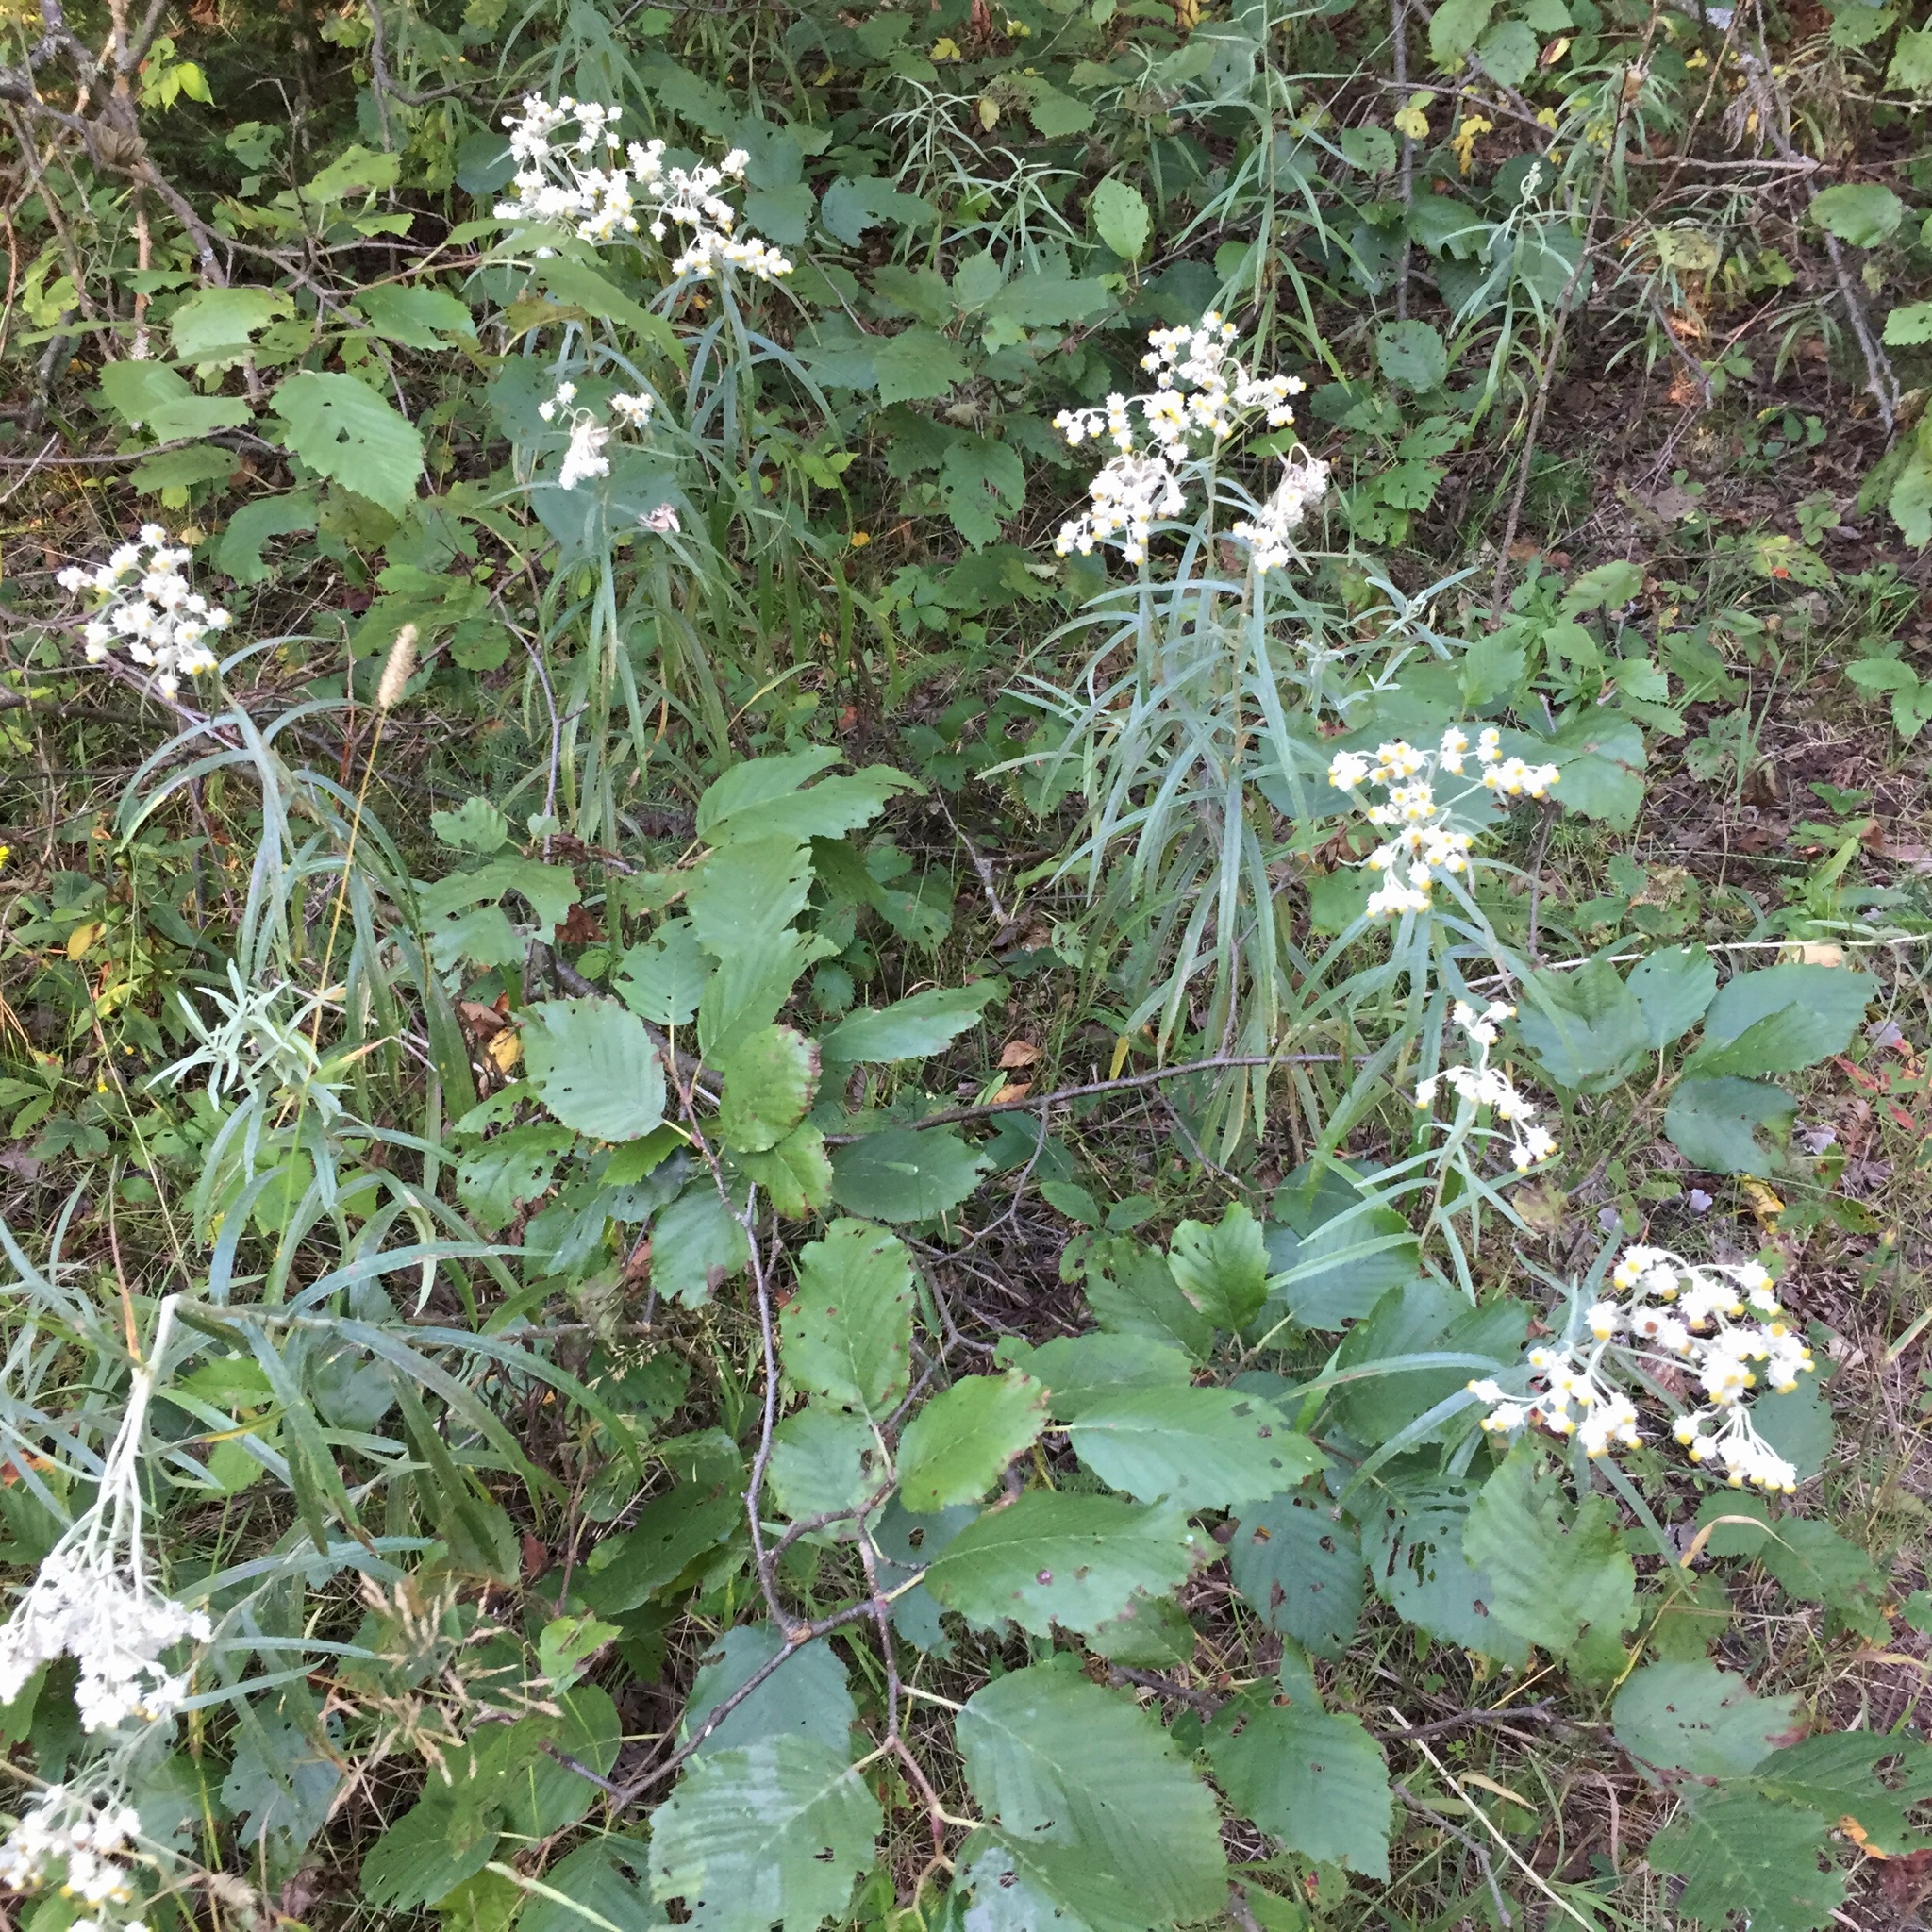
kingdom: Plantae
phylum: Tracheophyta
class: Magnoliopsida
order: Asterales
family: Asteraceae
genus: Anaphalis
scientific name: Anaphalis margaritacea
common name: Pearly everlasting
